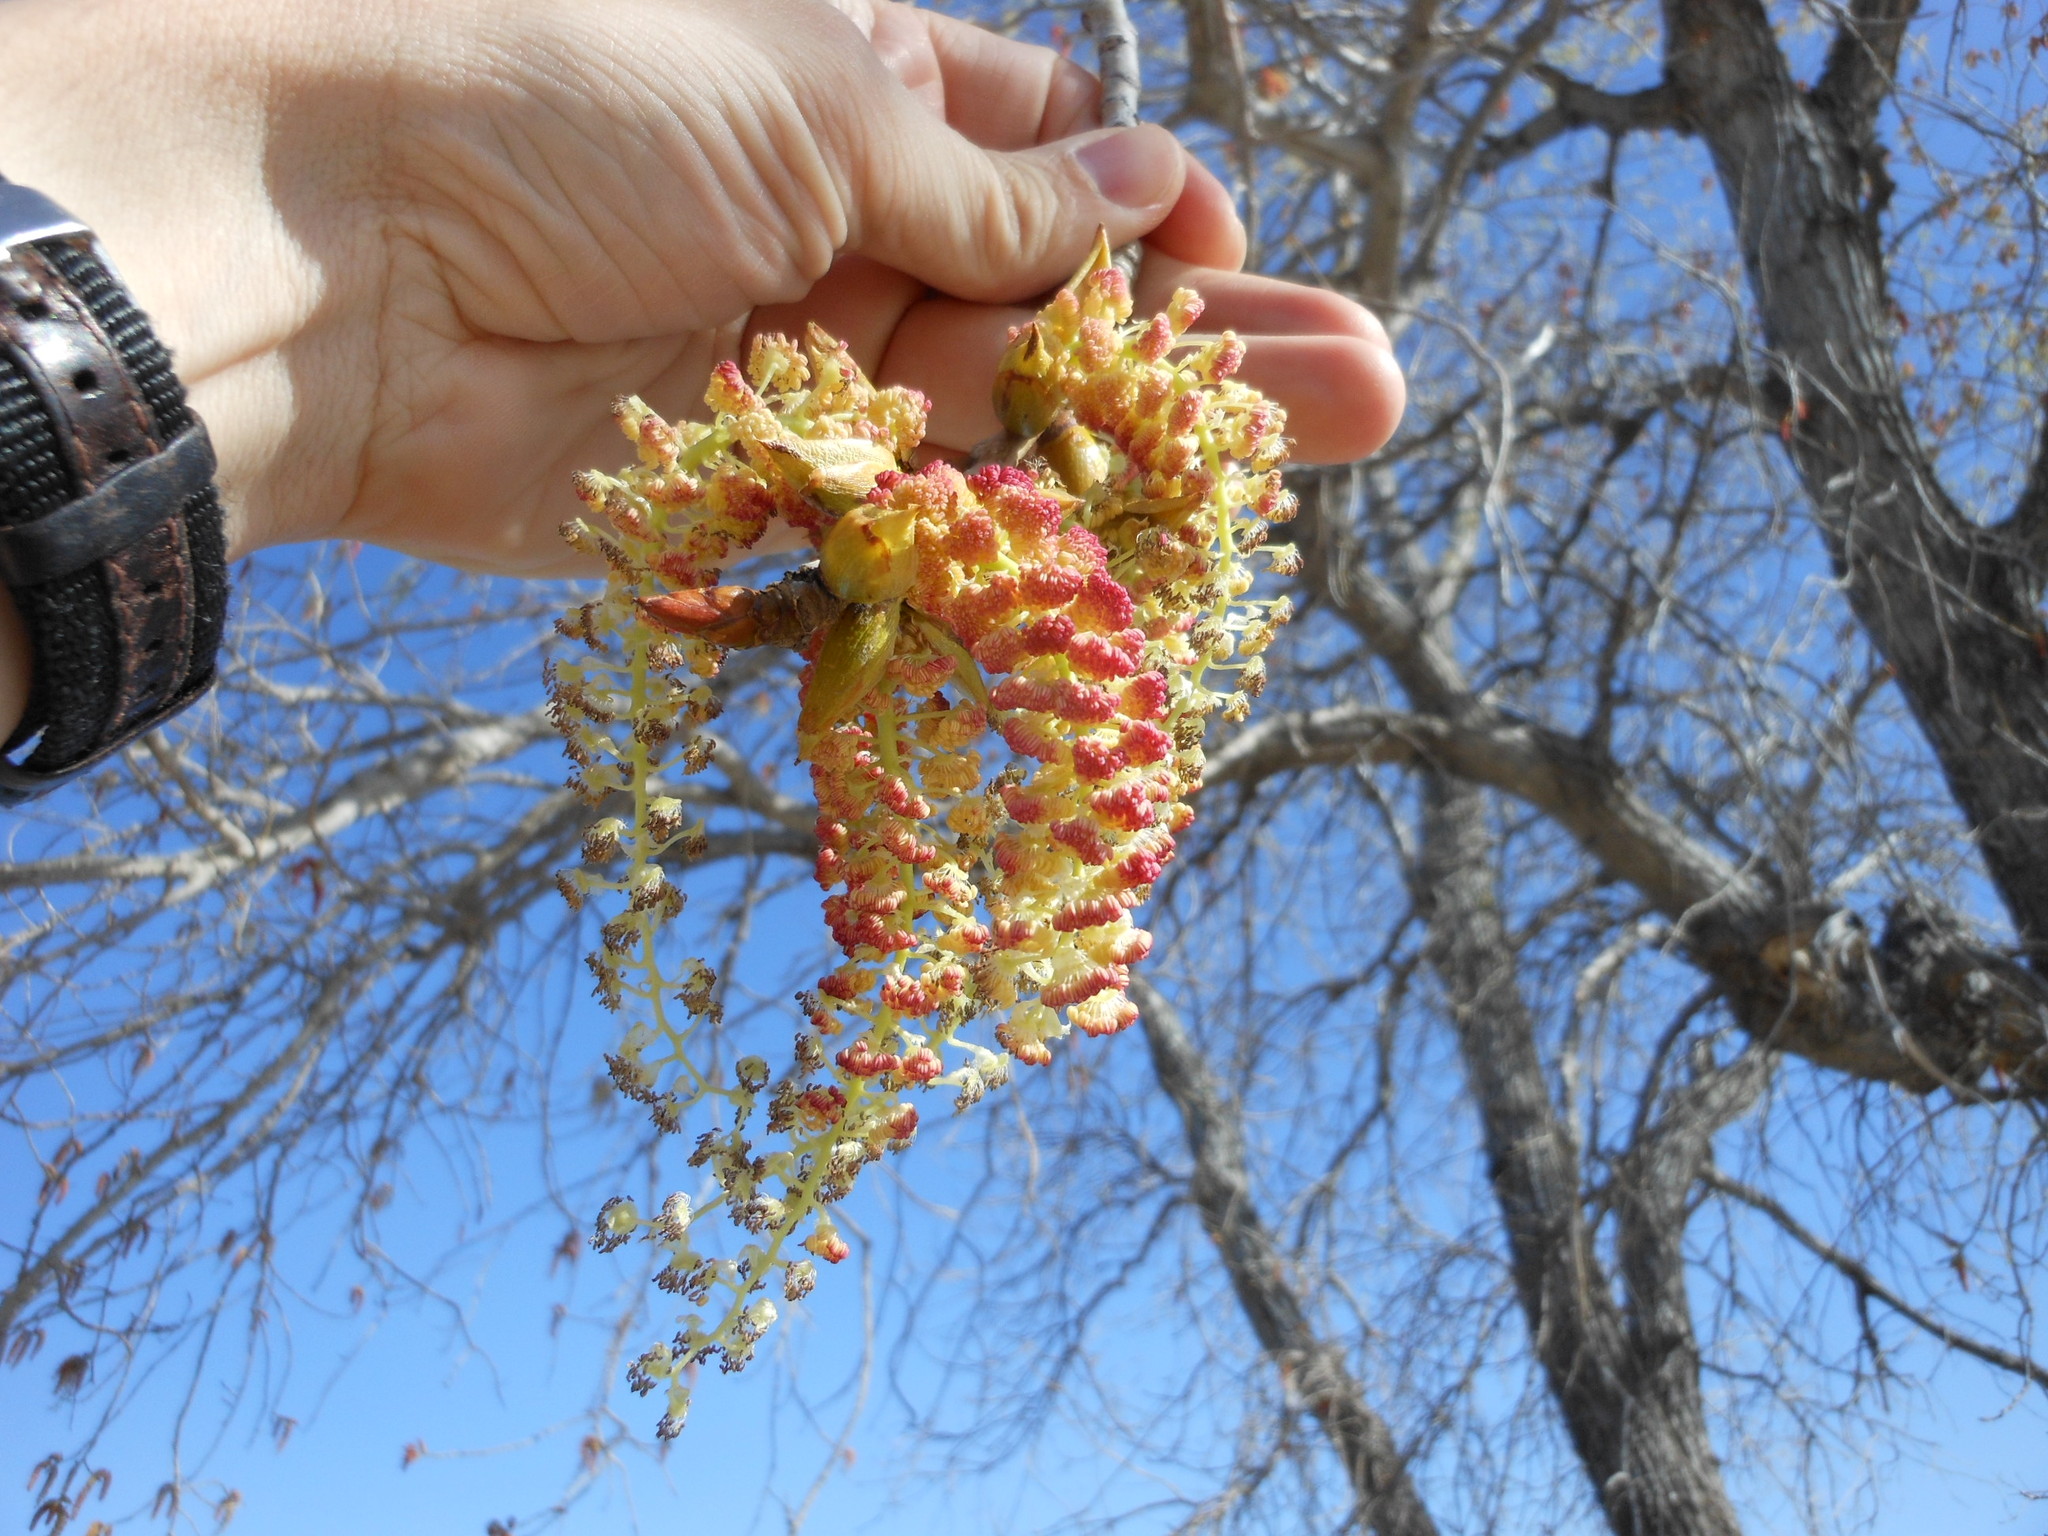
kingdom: Plantae
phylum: Tracheophyta
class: Magnoliopsida
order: Malpighiales
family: Salicaceae
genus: Populus
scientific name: Populus deltoides
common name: Eastern cottonwood
